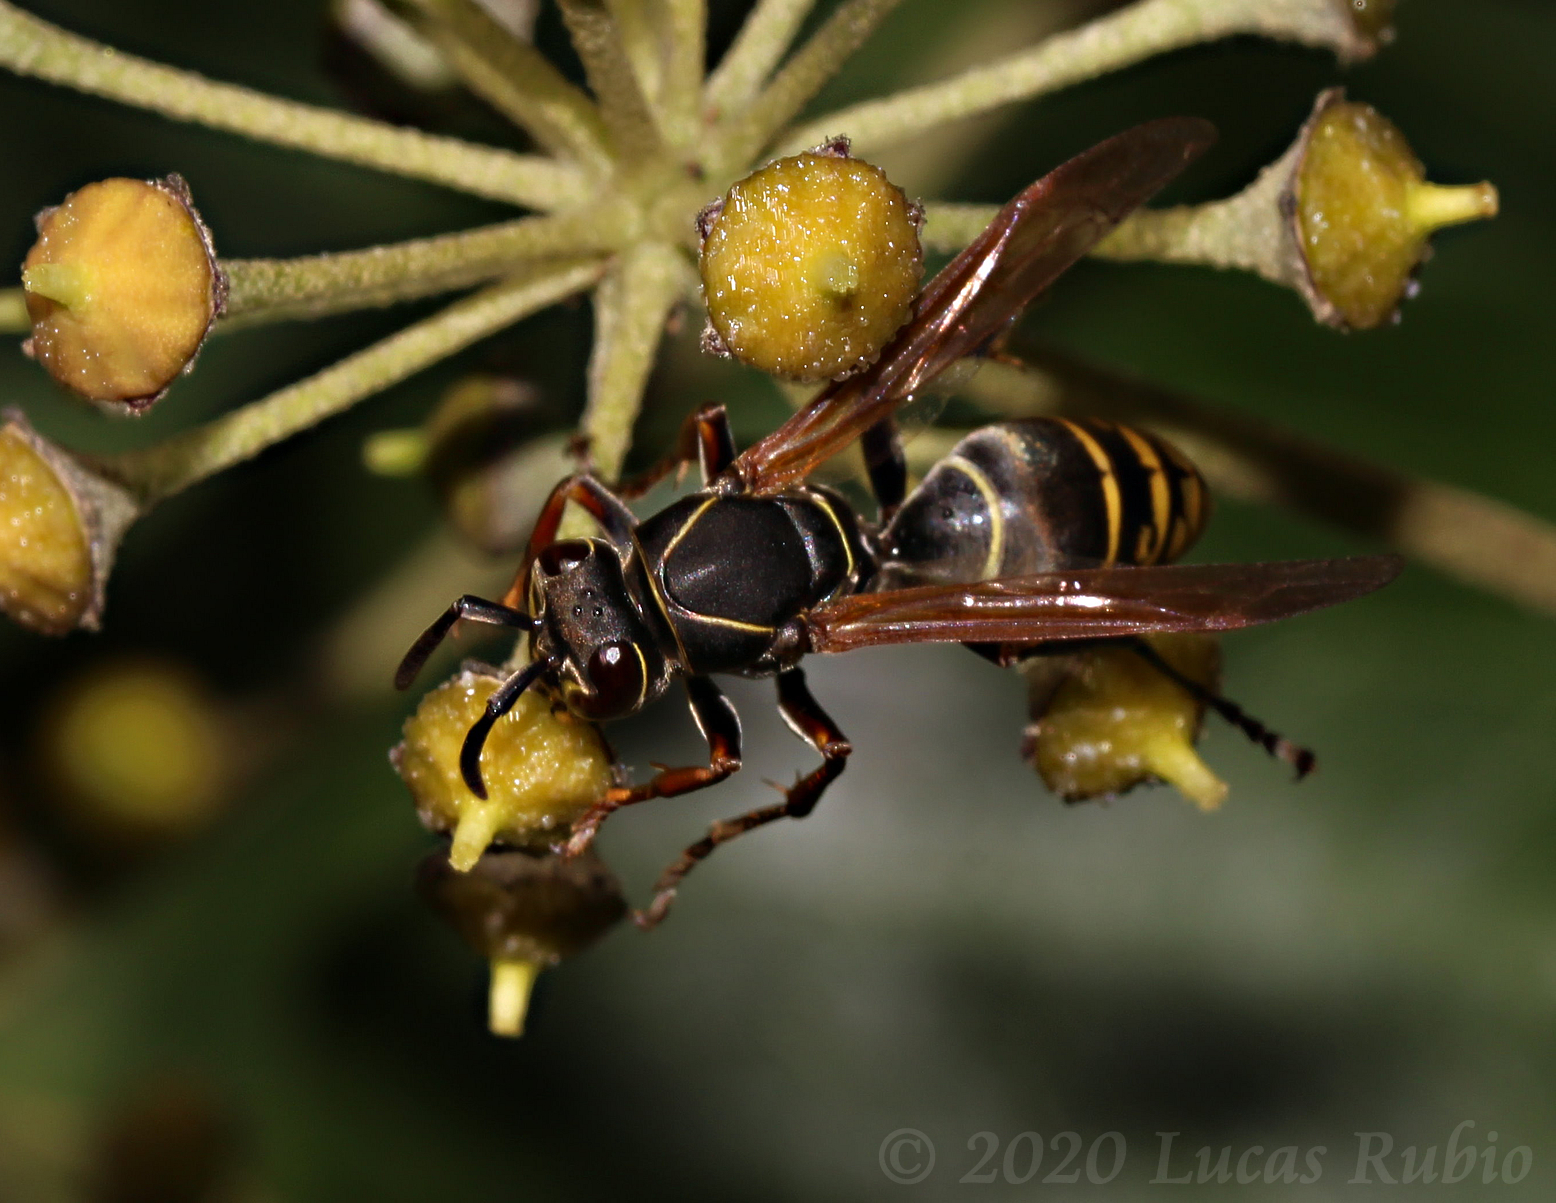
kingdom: Animalia
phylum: Arthropoda
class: Insecta
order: Hymenoptera
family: Eumenidae
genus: Polistes
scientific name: Polistes cinerascens
